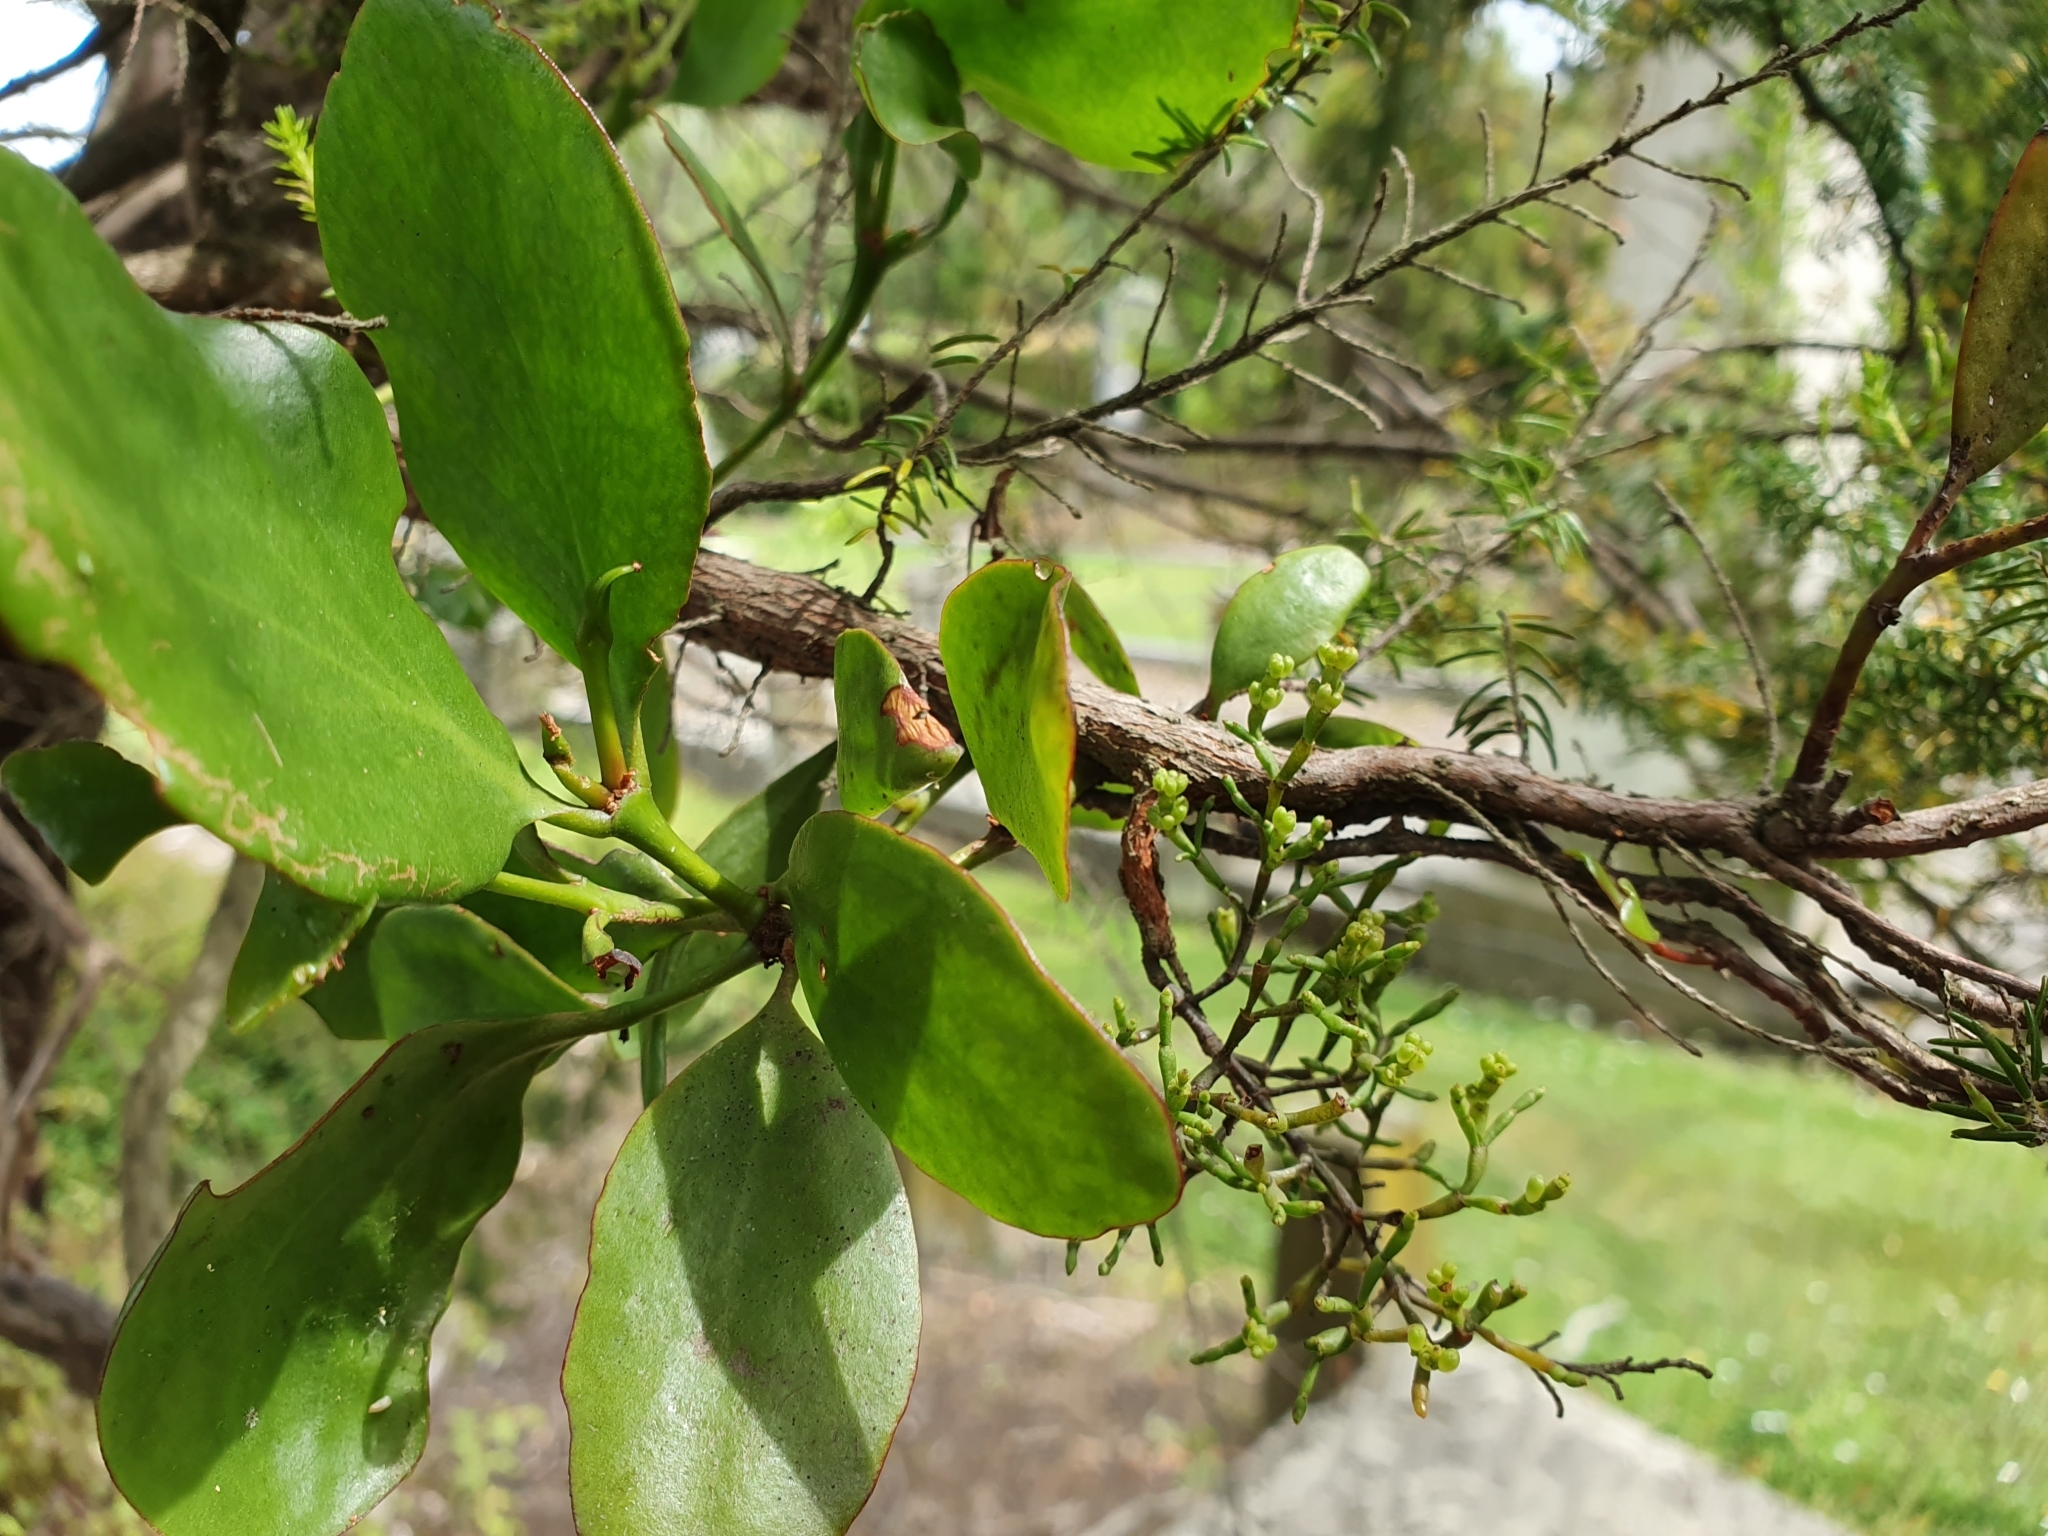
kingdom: Plantae
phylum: Tracheophyta
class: Magnoliopsida
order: Santalales
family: Viscaceae
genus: Korthalsella
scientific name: Korthalsella salicornioides
